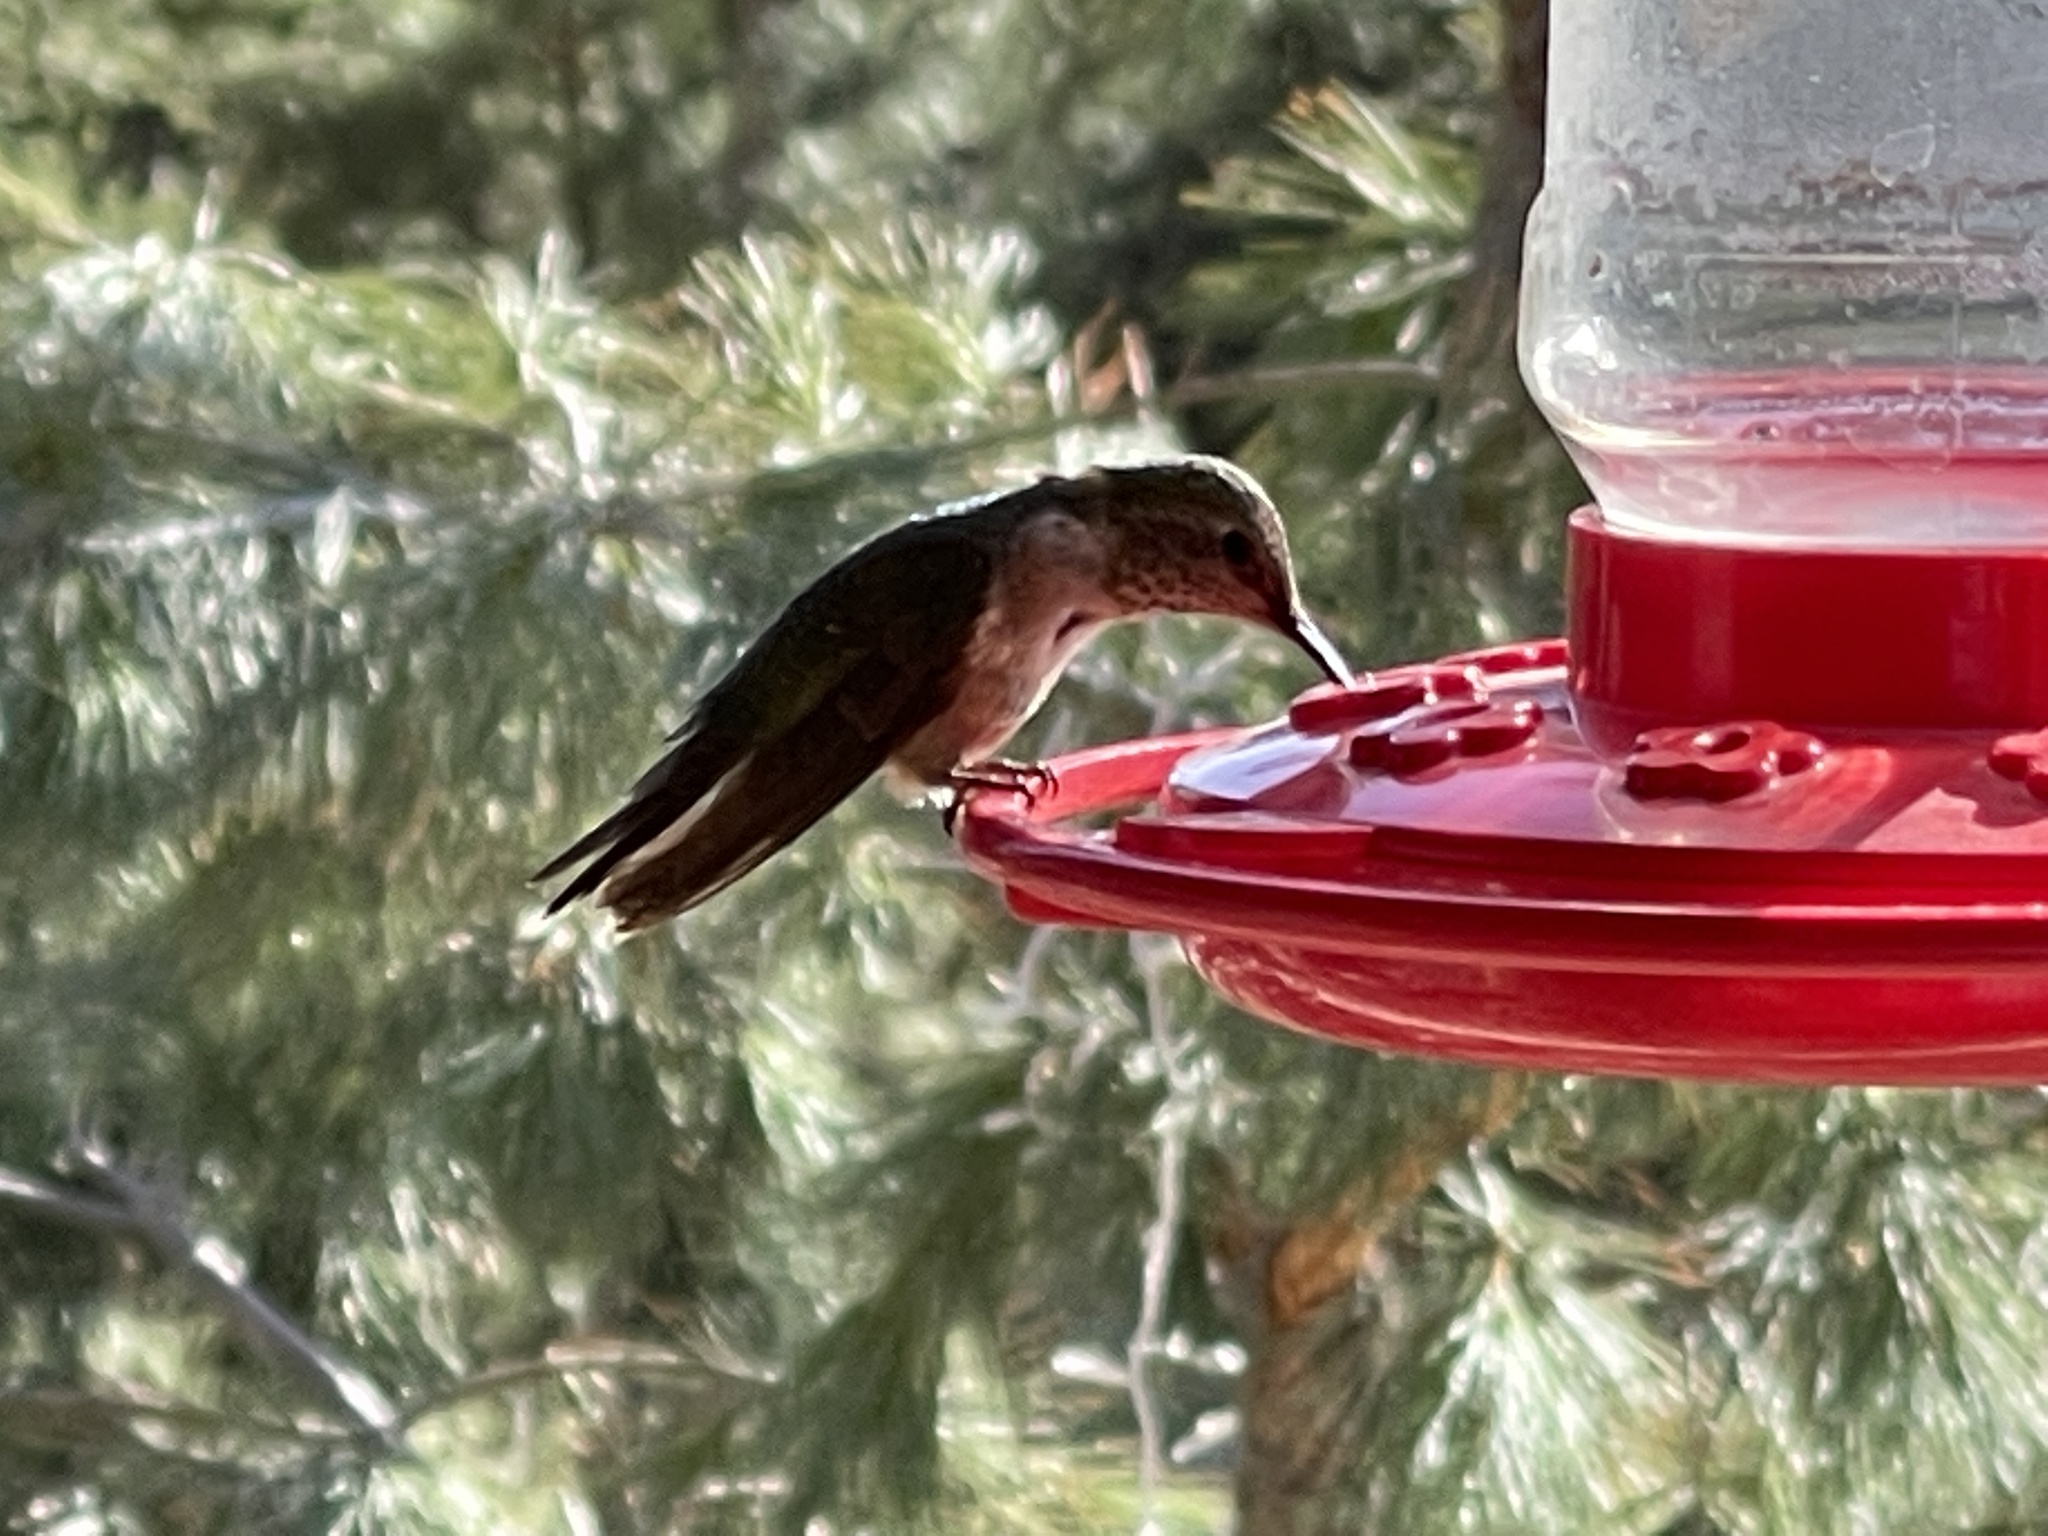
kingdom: Animalia
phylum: Chordata
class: Aves
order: Apodiformes
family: Trochilidae
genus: Selasphorus
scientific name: Selasphorus platycercus
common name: Broad-tailed hummingbird
